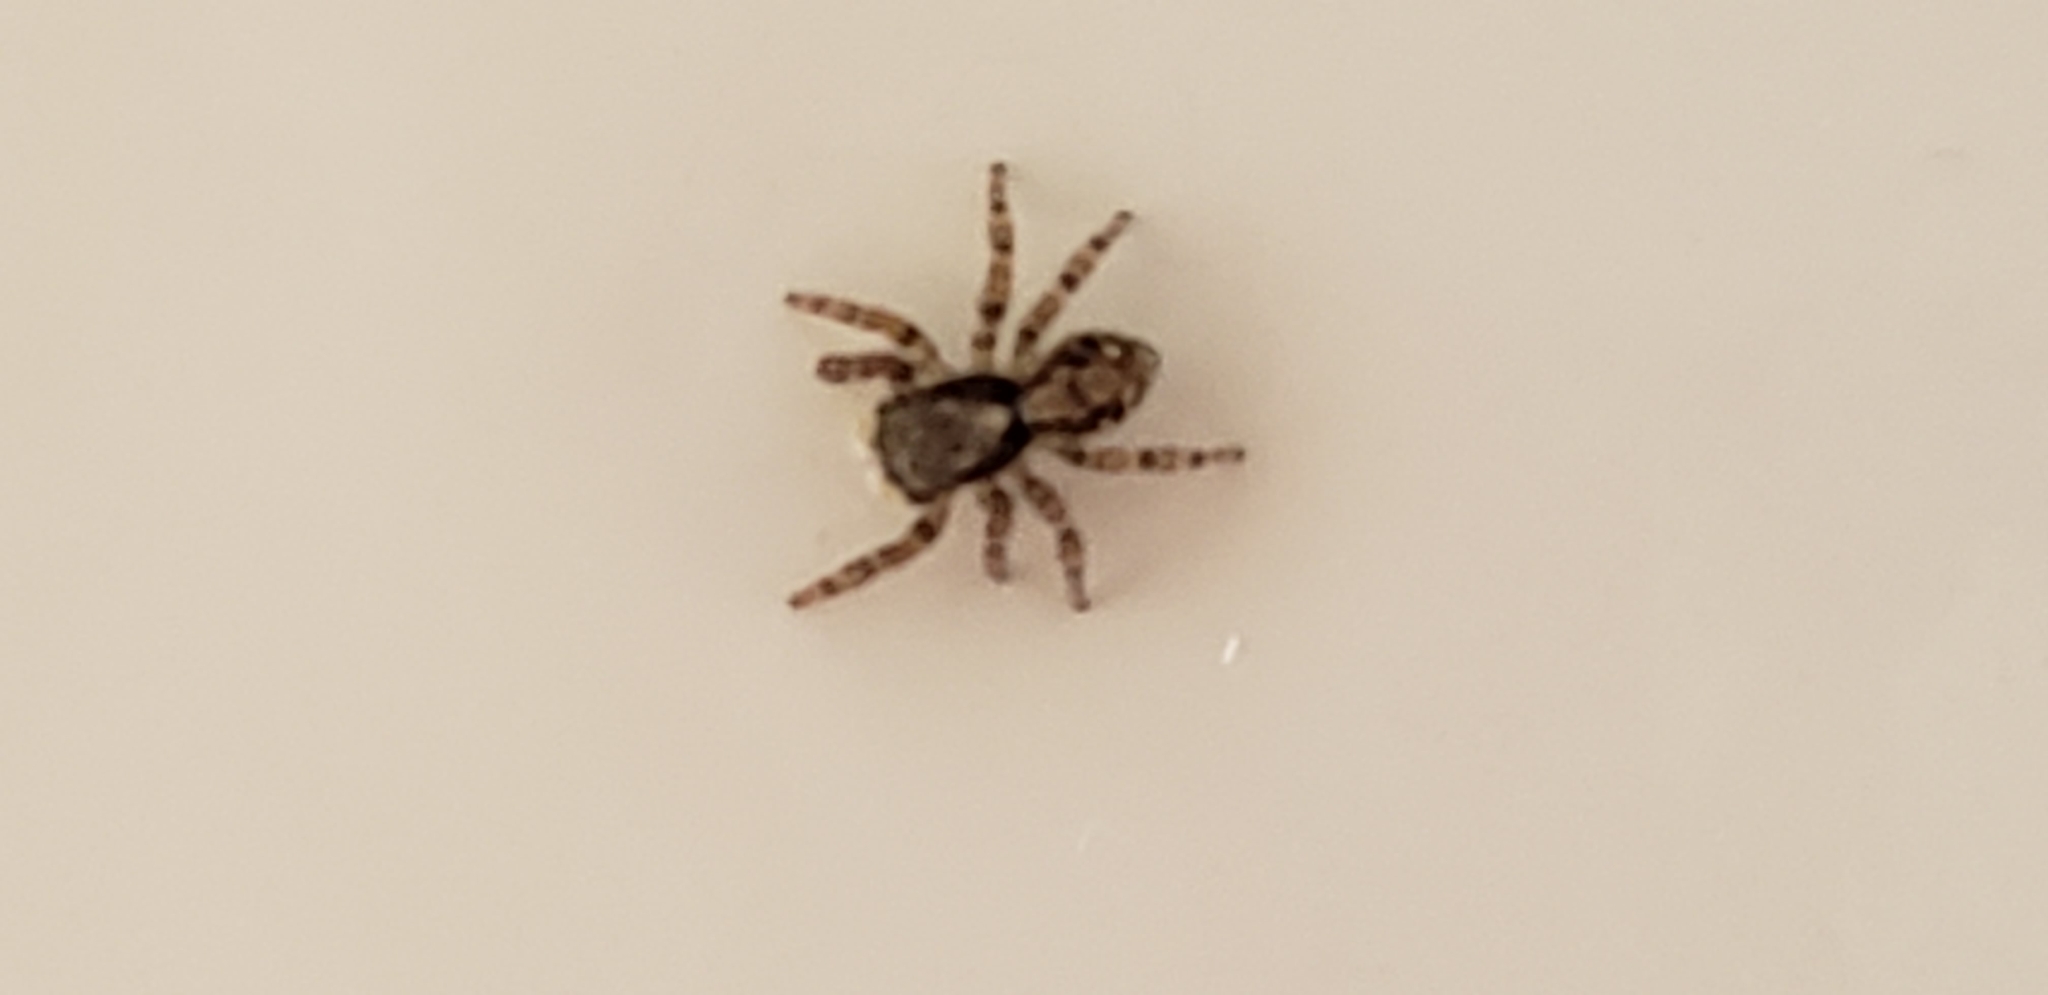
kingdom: Animalia
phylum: Arthropoda
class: Arachnida
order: Araneae
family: Salticidae
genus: Pseudeuophrys
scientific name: Pseudeuophrys lanigera
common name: Jumping spider
